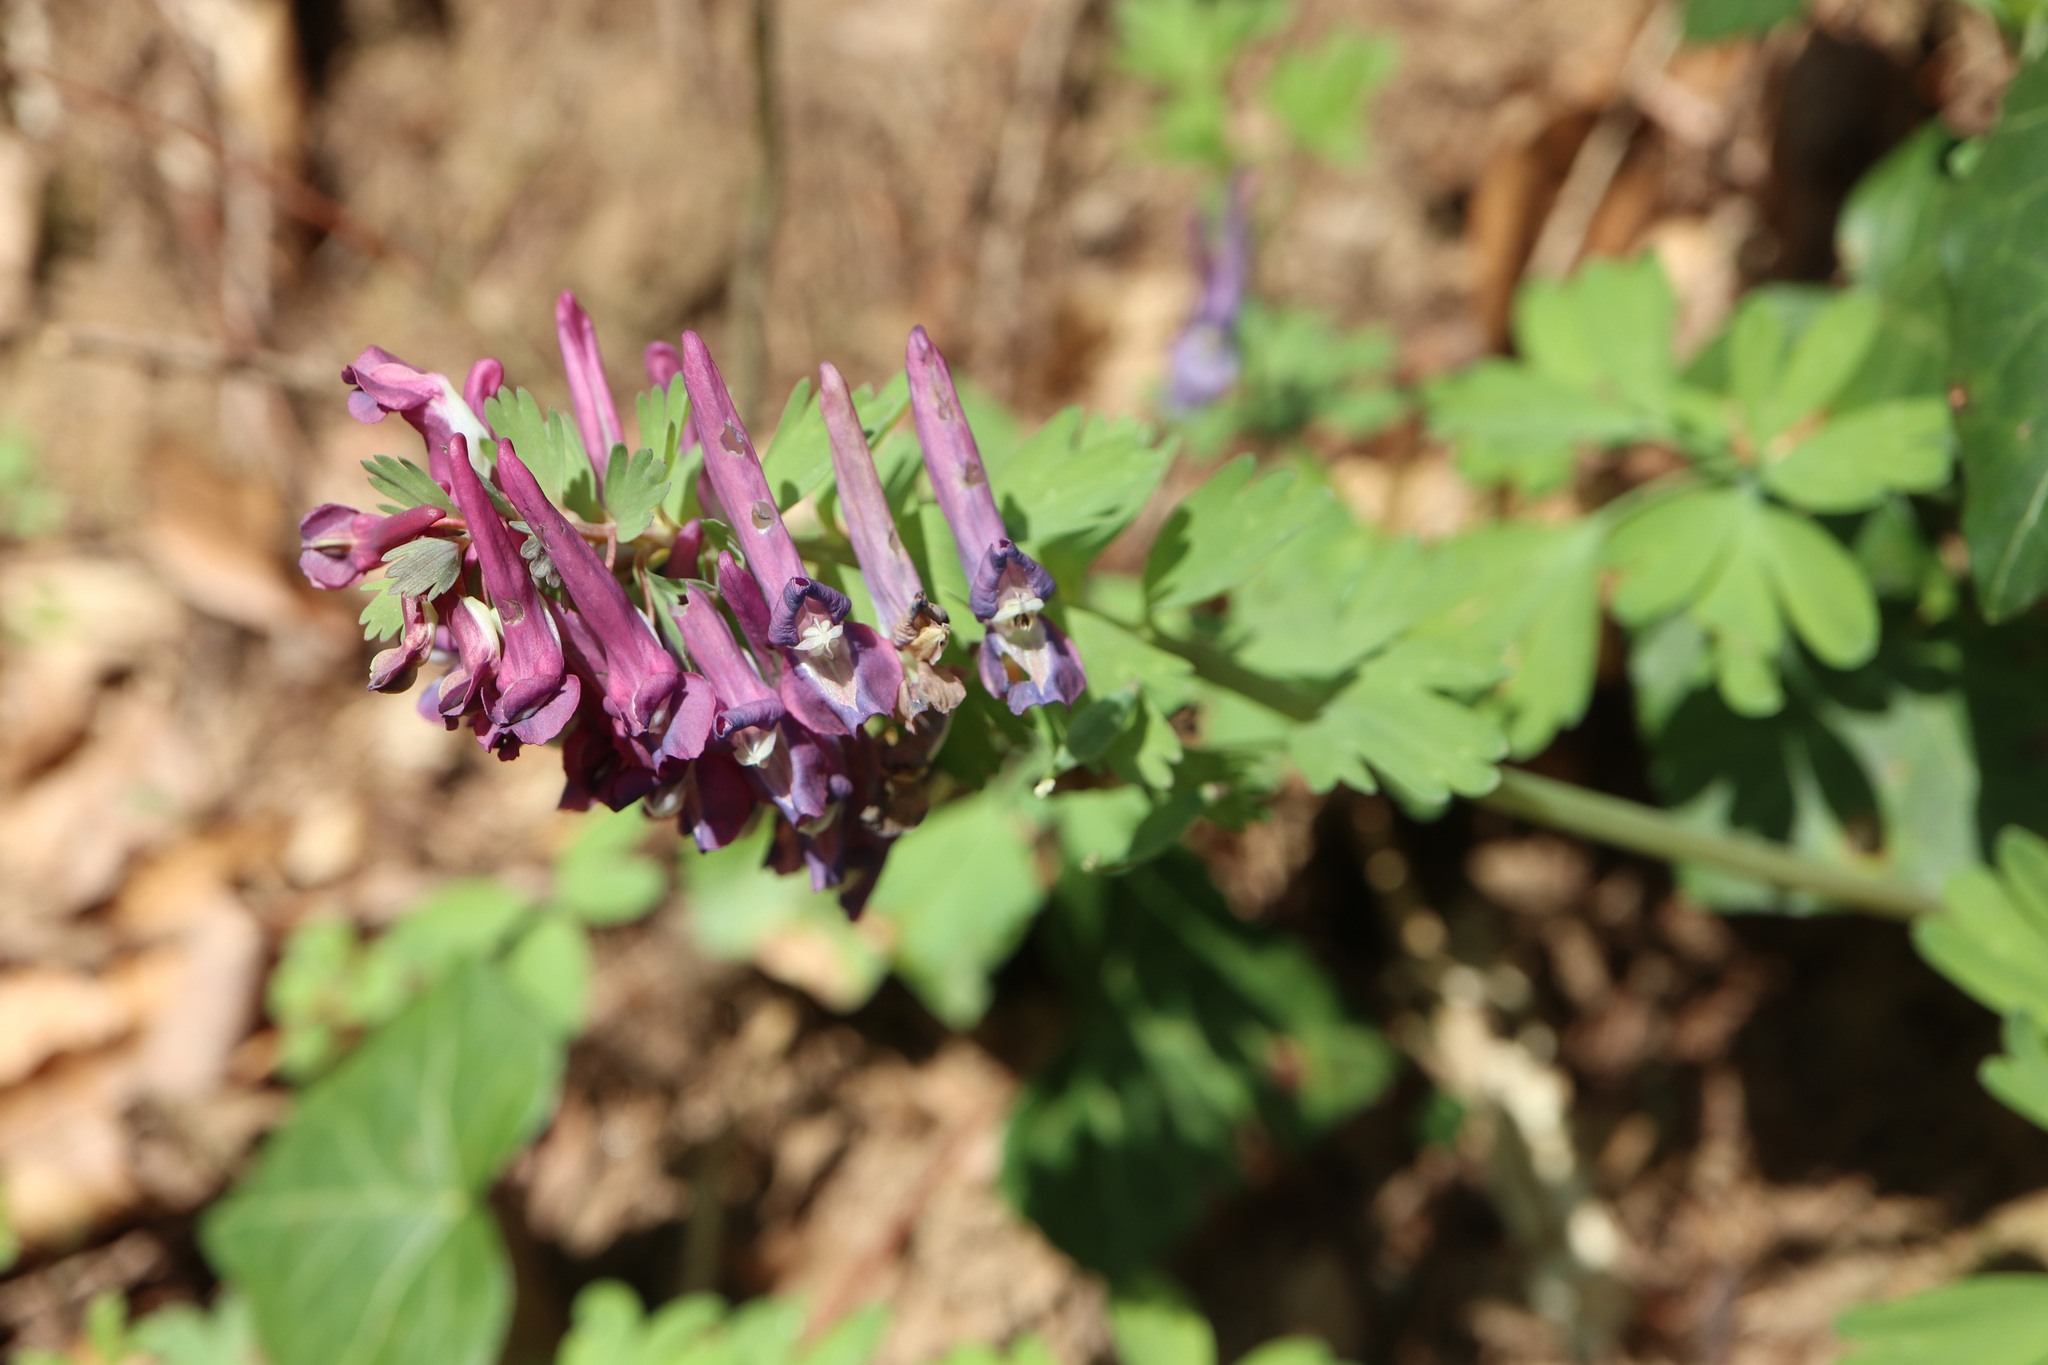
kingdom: Plantae
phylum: Tracheophyta
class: Magnoliopsida
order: Ranunculales
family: Papaveraceae
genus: Corydalis
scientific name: Corydalis solida
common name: Bird-in-a-bush
